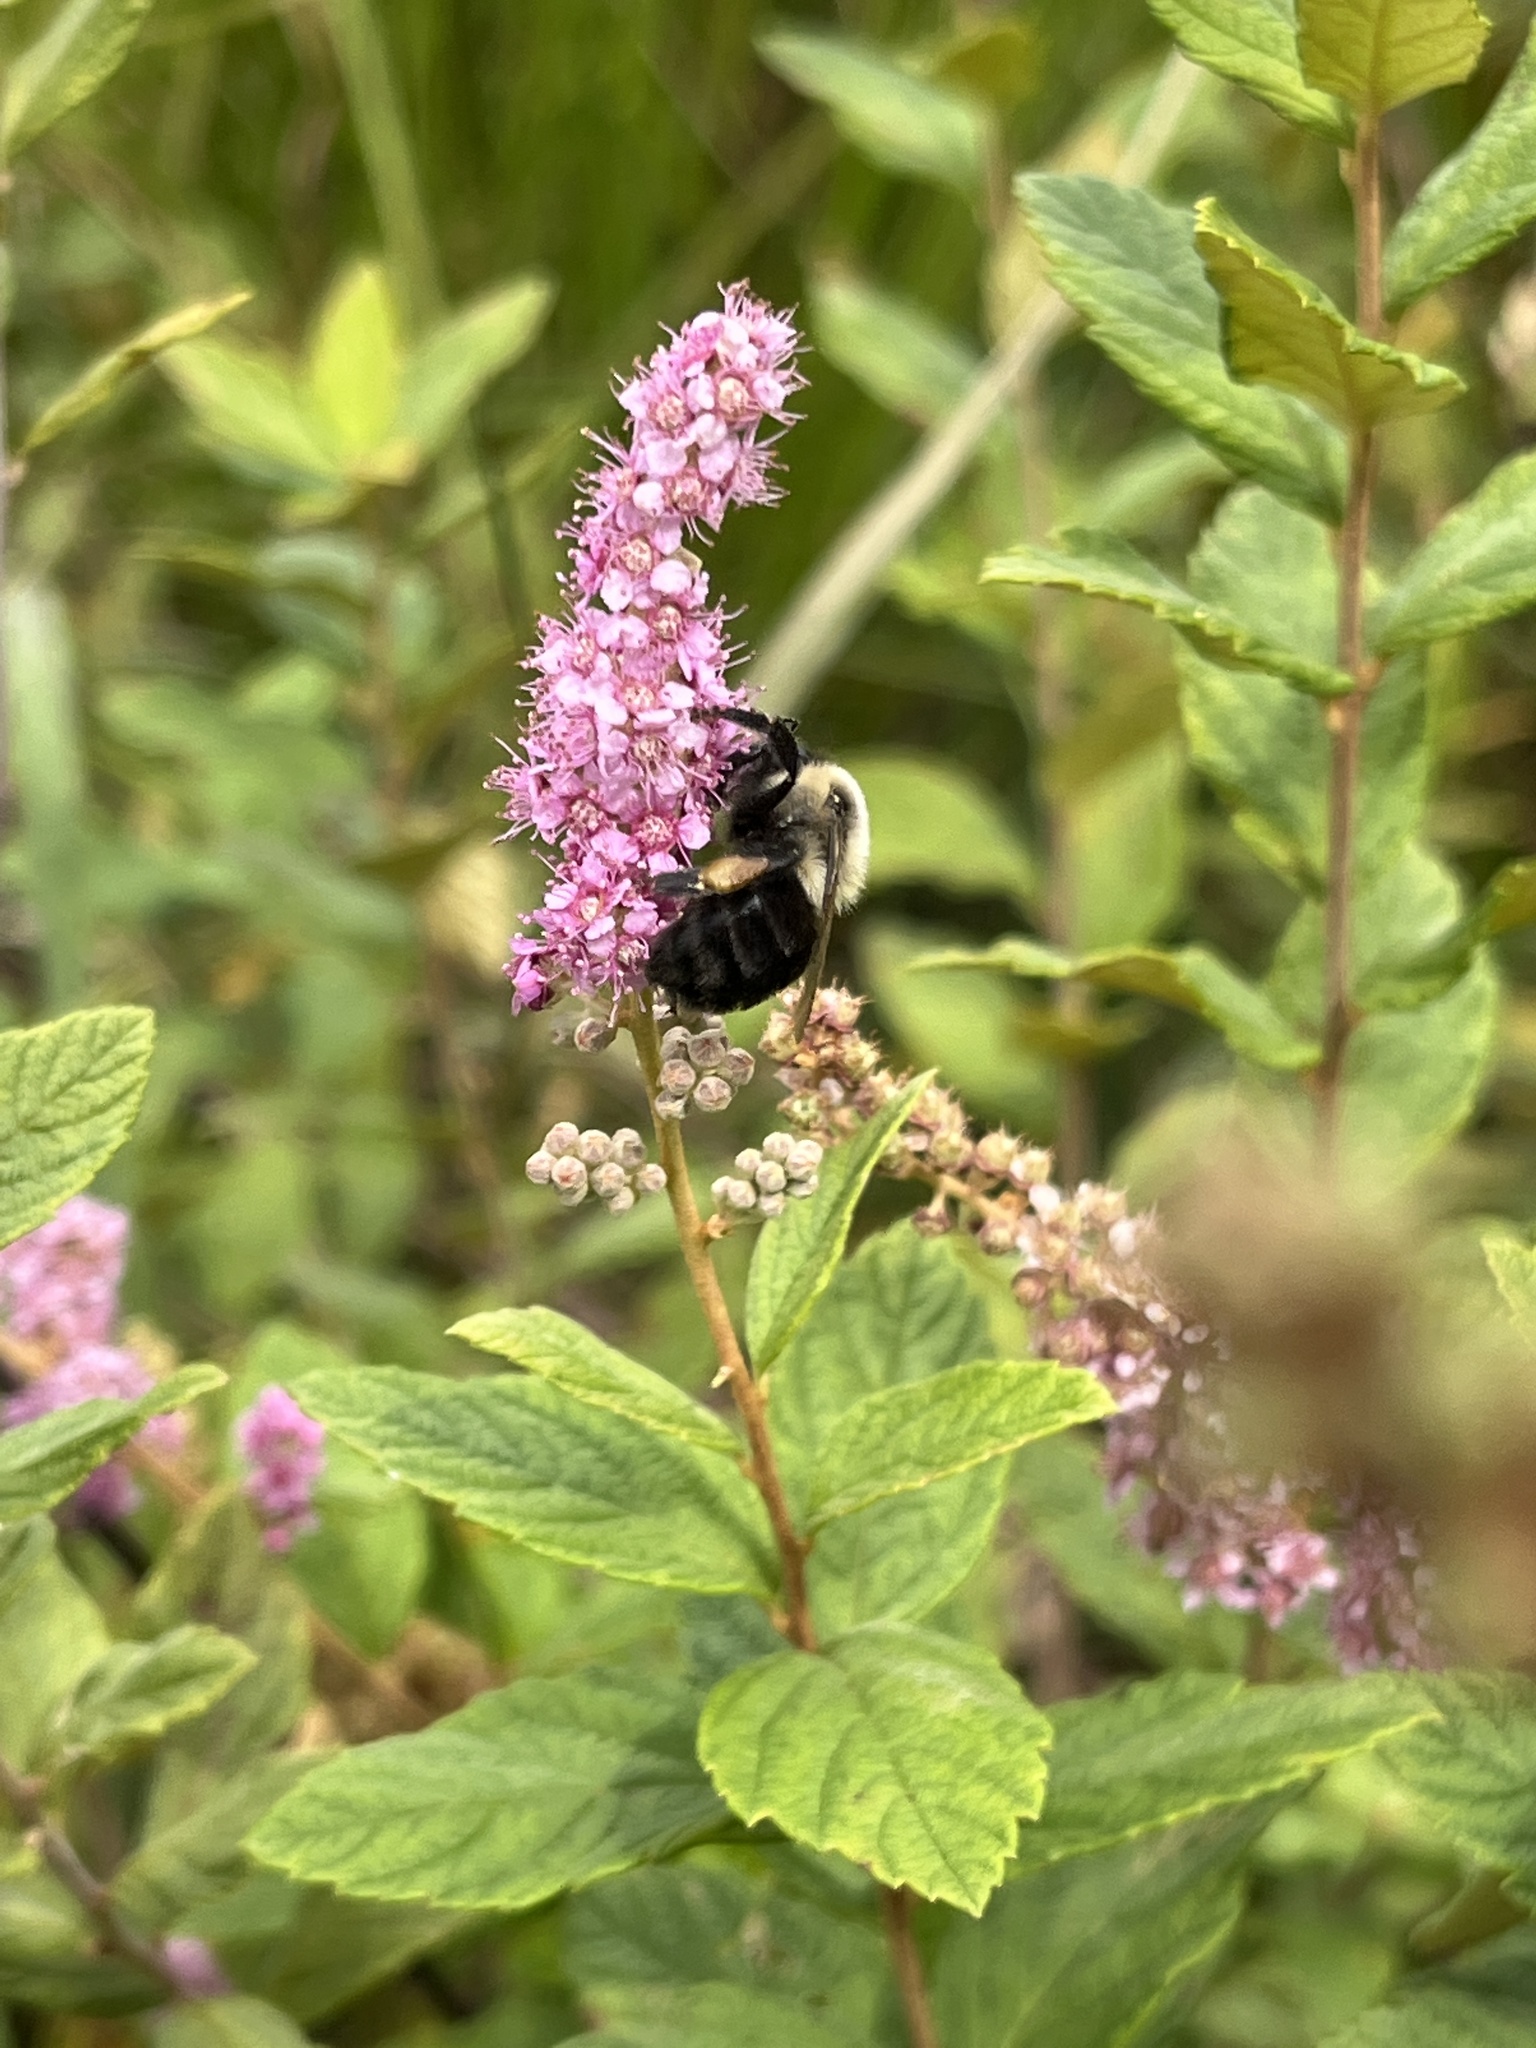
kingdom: Animalia
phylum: Arthropoda
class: Insecta
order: Hymenoptera
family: Apidae
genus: Bombus
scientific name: Bombus impatiens
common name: Common eastern bumble bee
